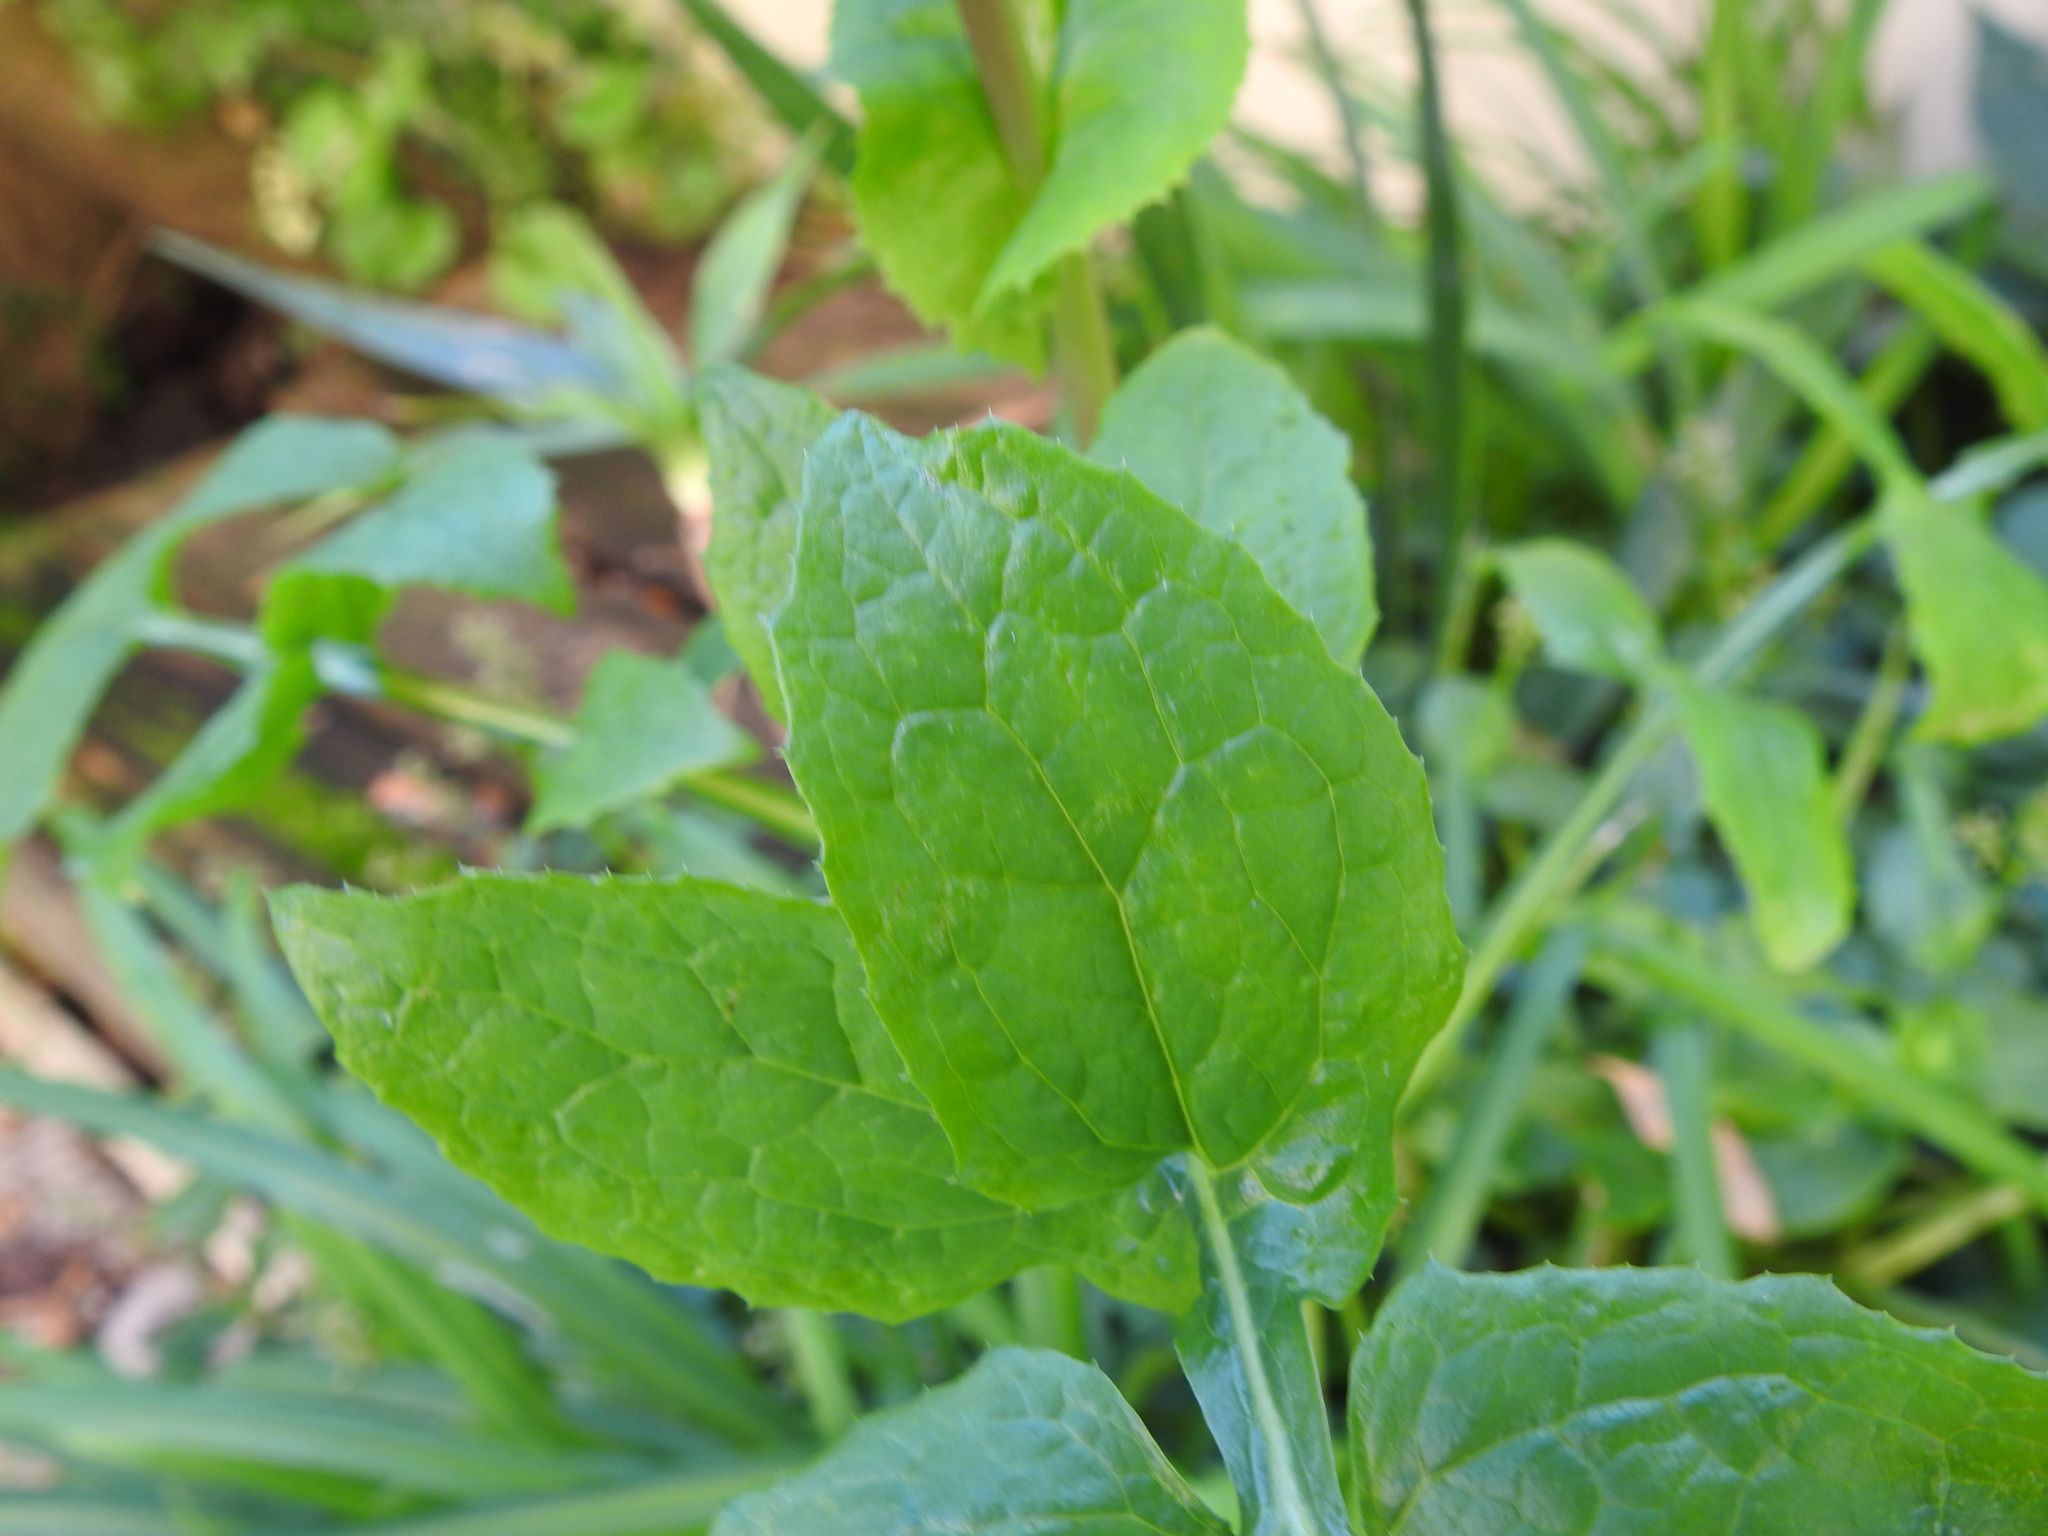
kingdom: Plantae
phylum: Tracheophyta
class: Magnoliopsida
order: Asterales
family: Asteraceae
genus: Sonchus
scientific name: Sonchus oleraceus
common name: Common sowthistle
